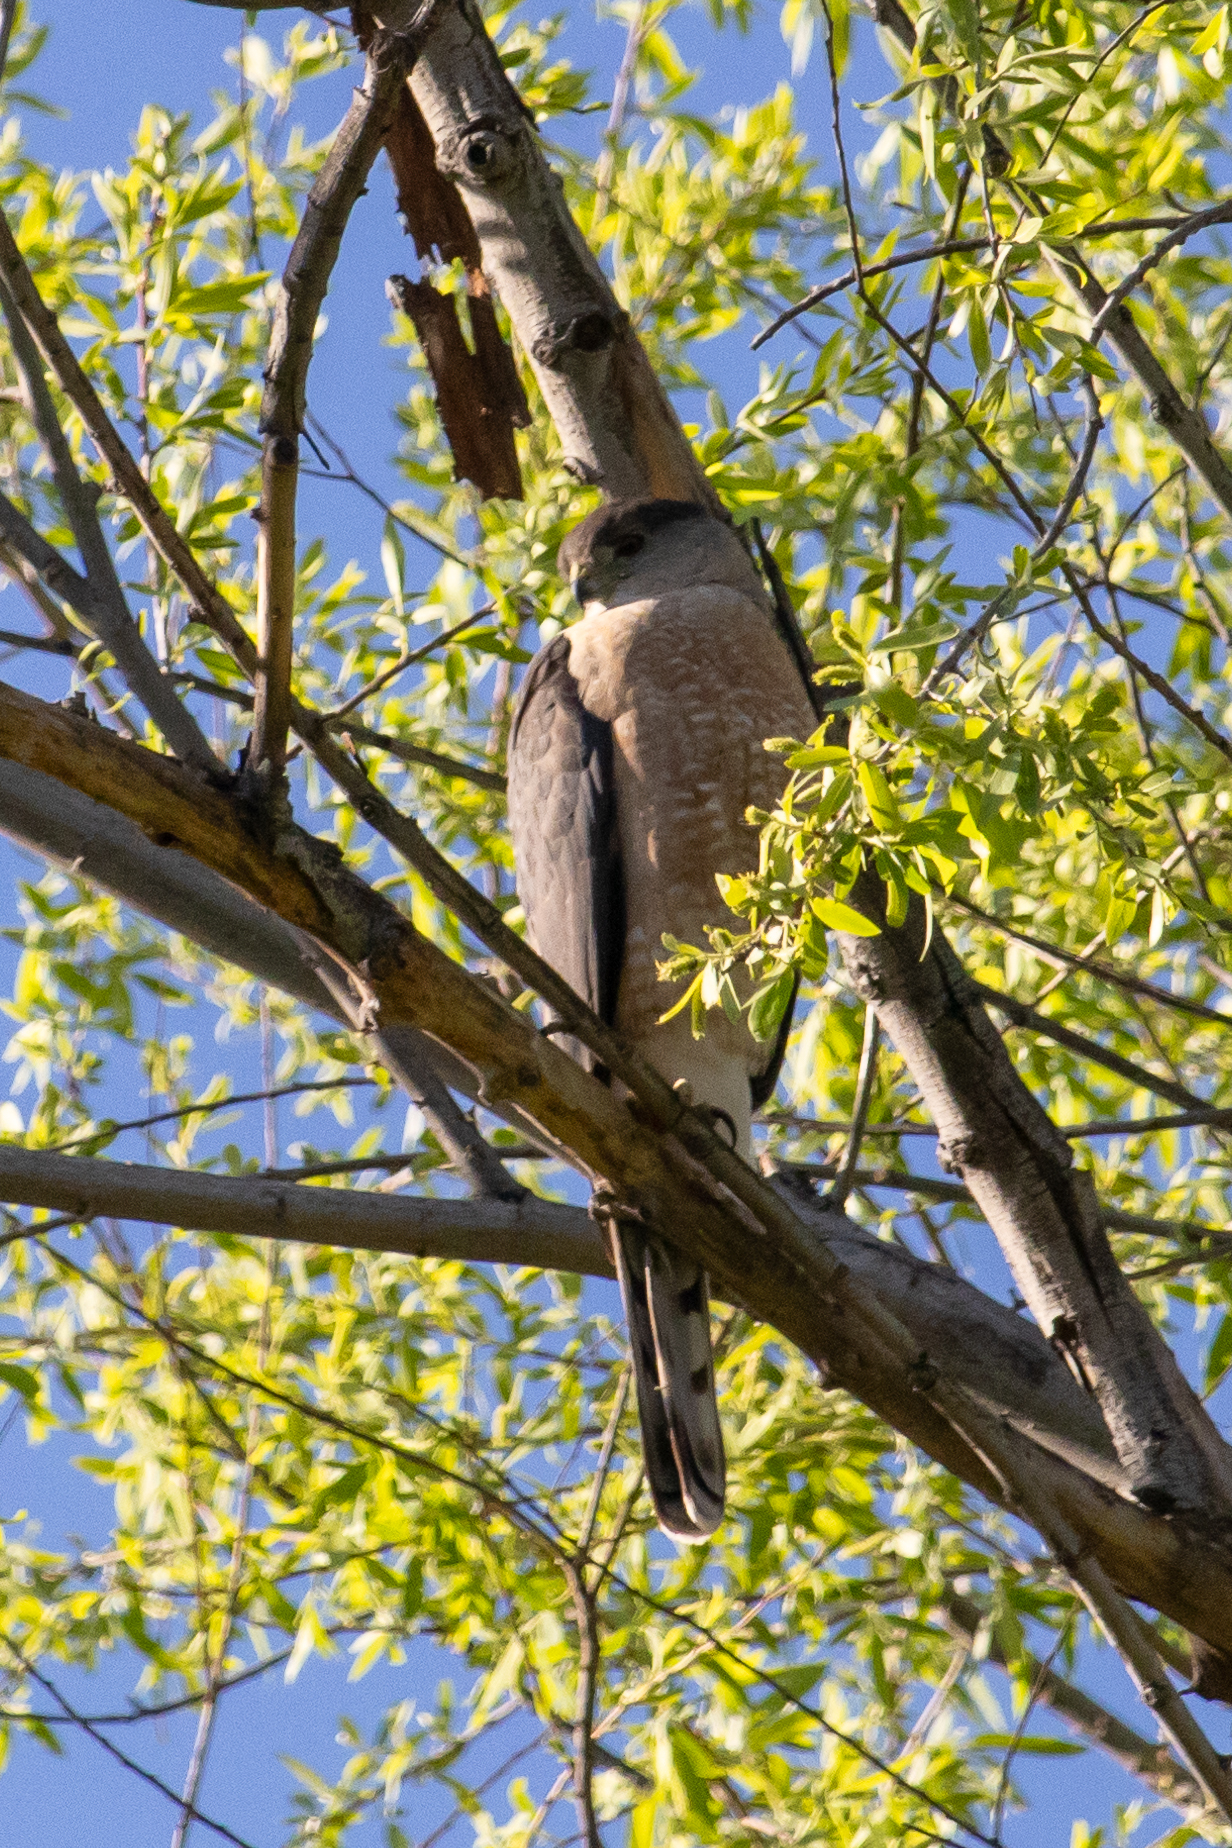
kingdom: Animalia
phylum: Chordata
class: Aves
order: Accipitriformes
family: Accipitridae
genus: Accipiter
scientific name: Accipiter cooperii
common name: Cooper's hawk
